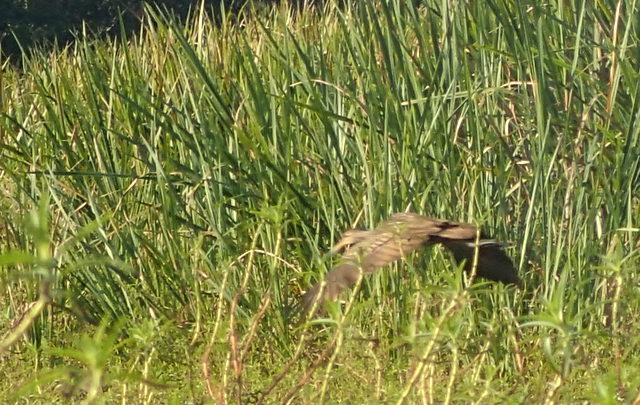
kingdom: Animalia
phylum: Chordata
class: Aves
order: Gruiformes
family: Aramidae
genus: Aramus
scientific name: Aramus guarauna
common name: Limpkin
